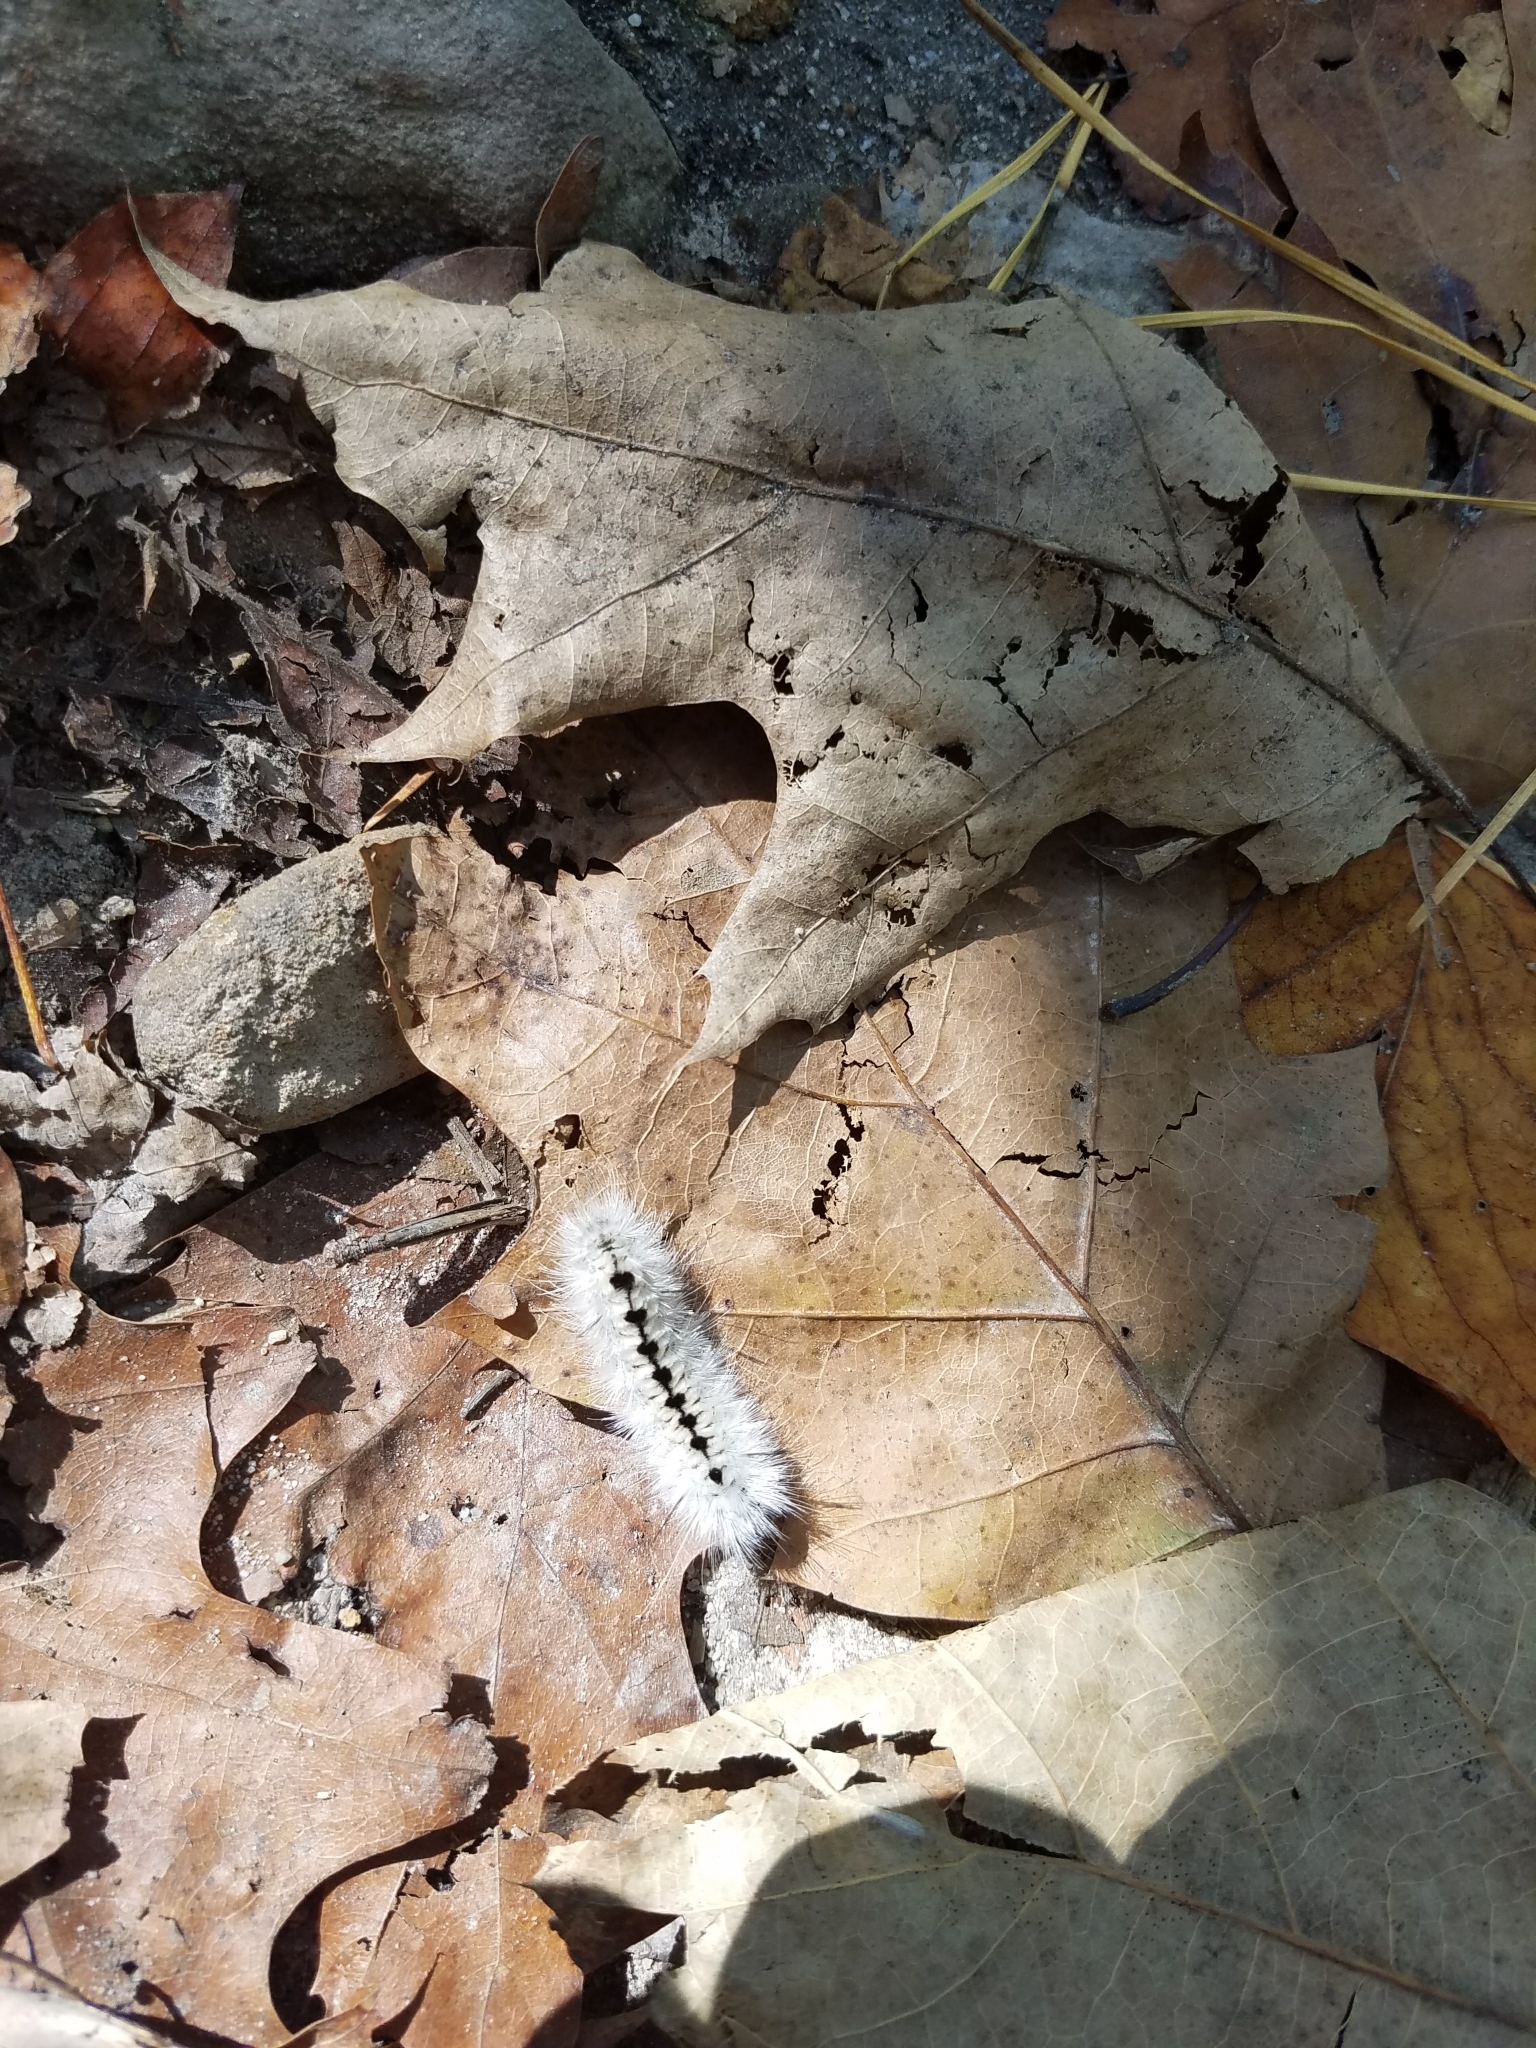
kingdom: Animalia
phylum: Arthropoda
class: Insecta
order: Lepidoptera
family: Erebidae
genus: Lophocampa
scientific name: Lophocampa caryae
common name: Hickory tussock moth
